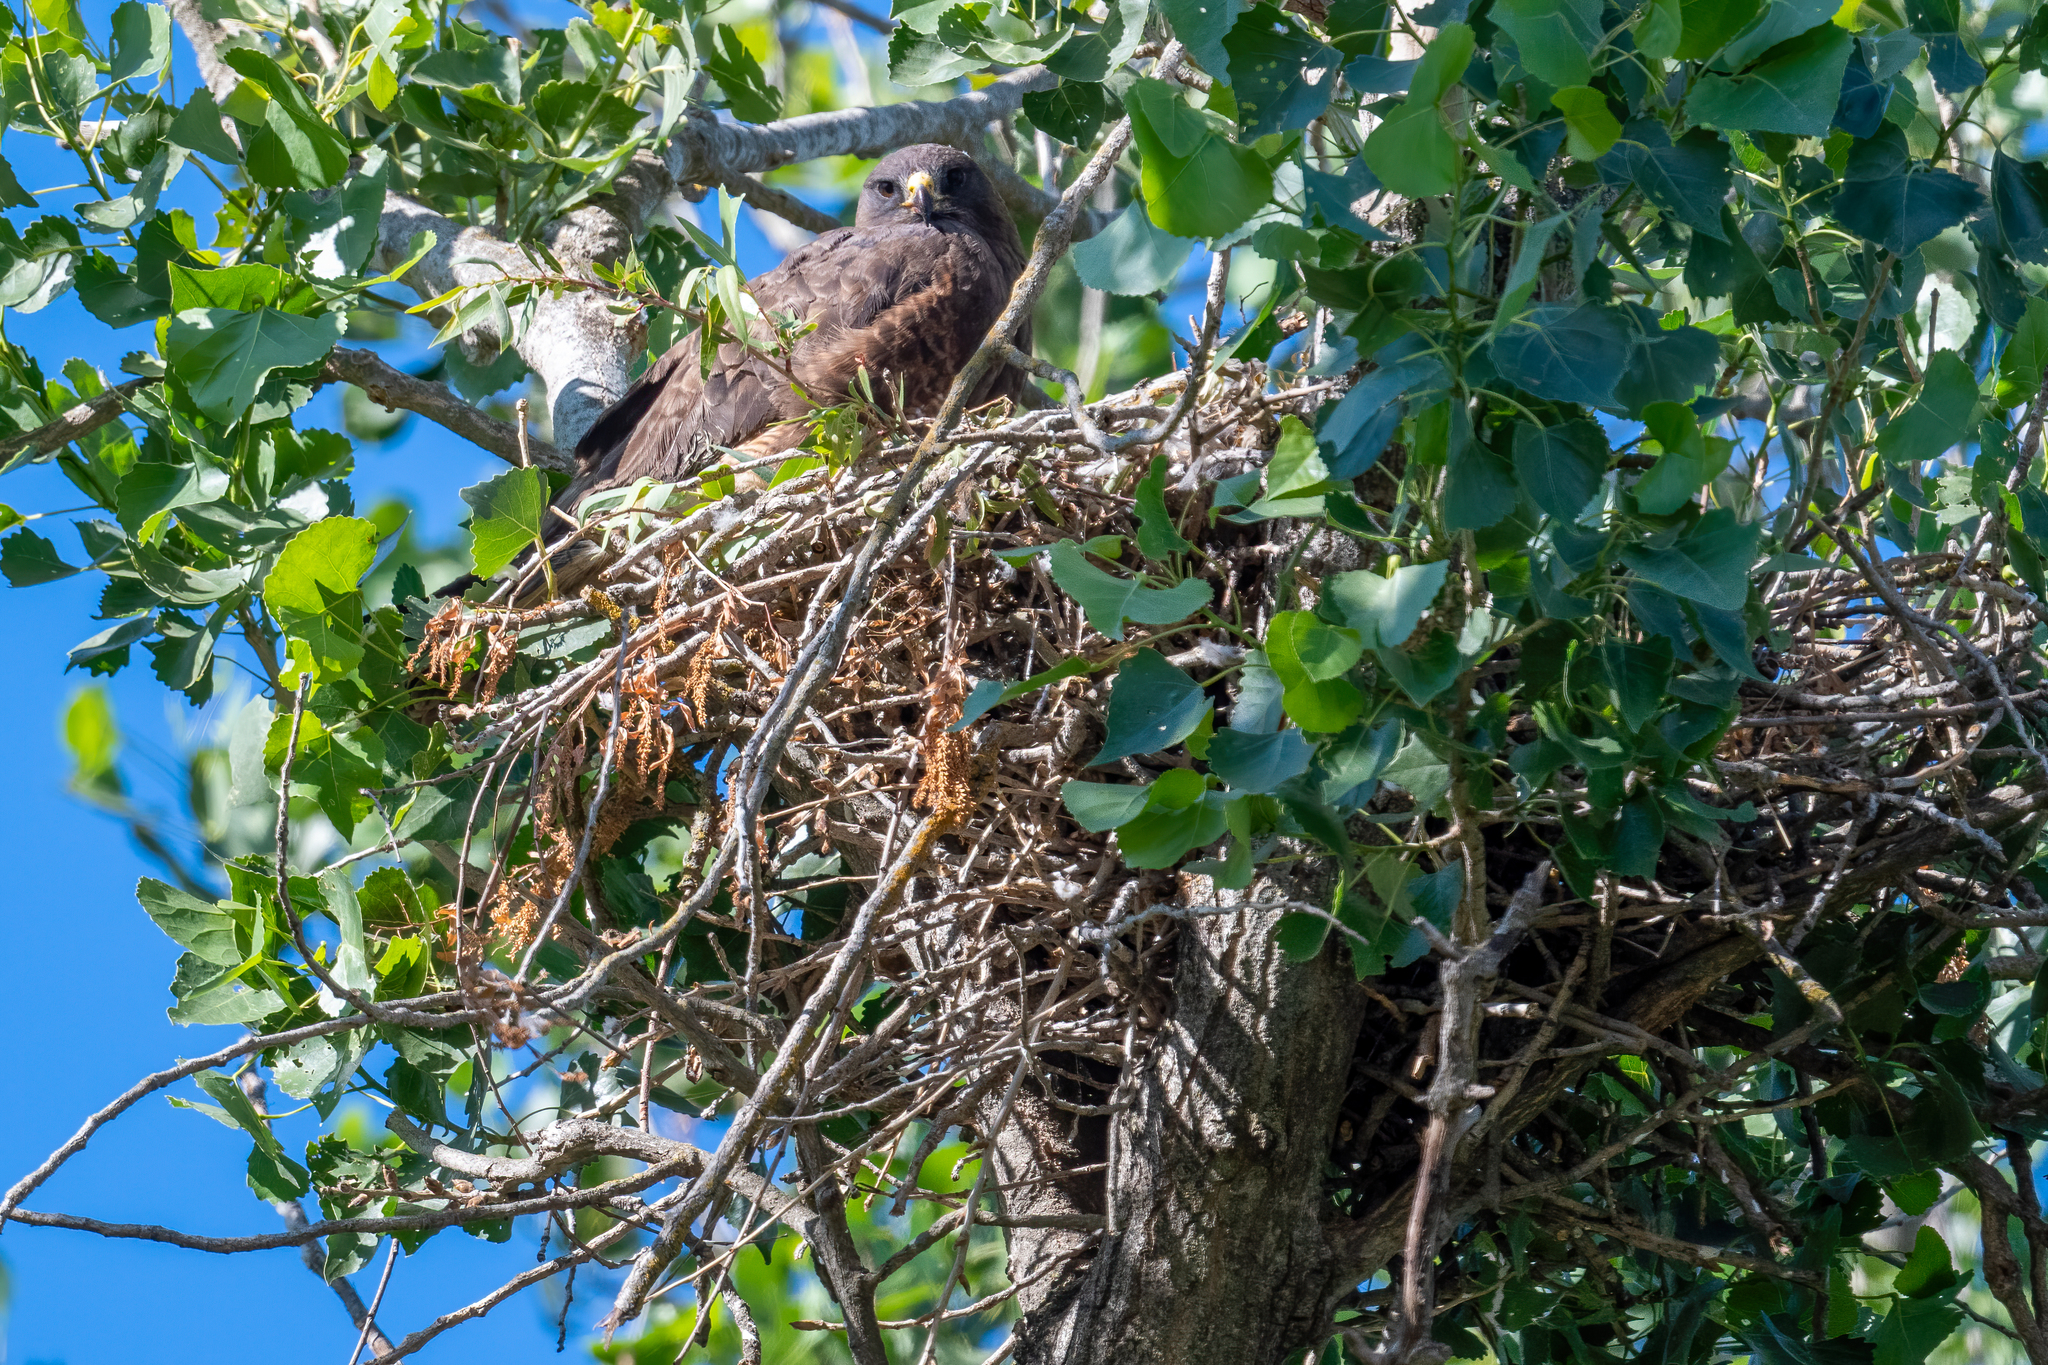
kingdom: Animalia
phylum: Chordata
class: Aves
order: Accipitriformes
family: Accipitridae
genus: Buteo
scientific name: Buteo swainsoni
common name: Swainson's hawk
